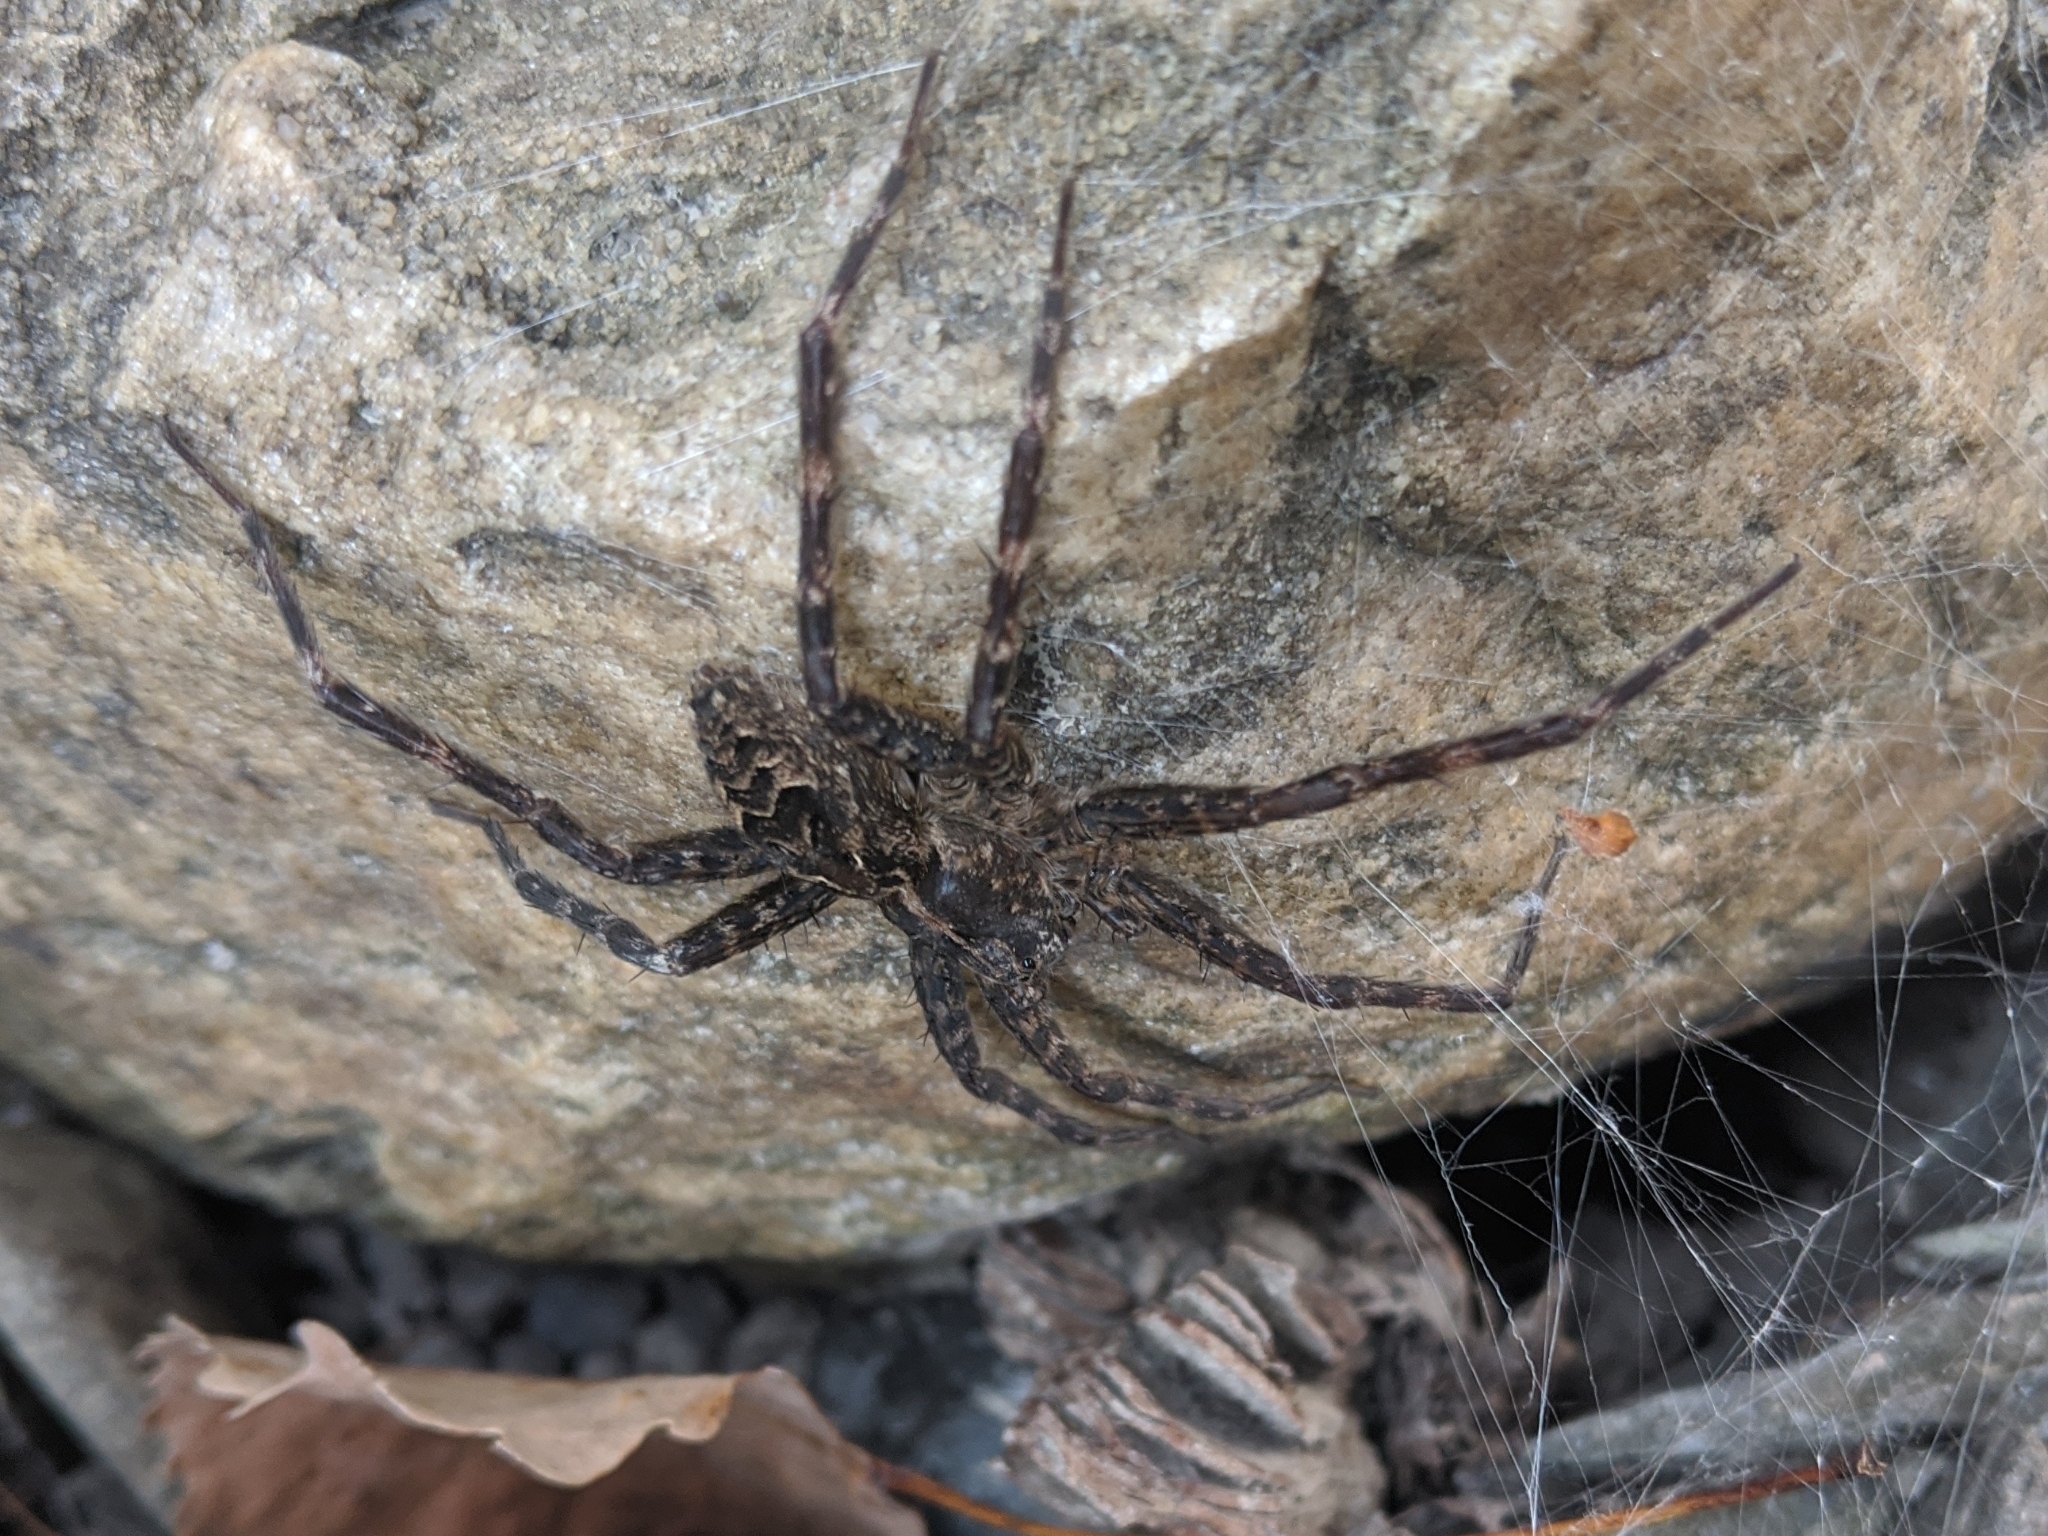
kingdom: Animalia
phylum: Arthropoda
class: Arachnida
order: Araneae
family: Pisauridae
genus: Dolomedes
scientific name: Dolomedes scriptus
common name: Striped fishing spider
